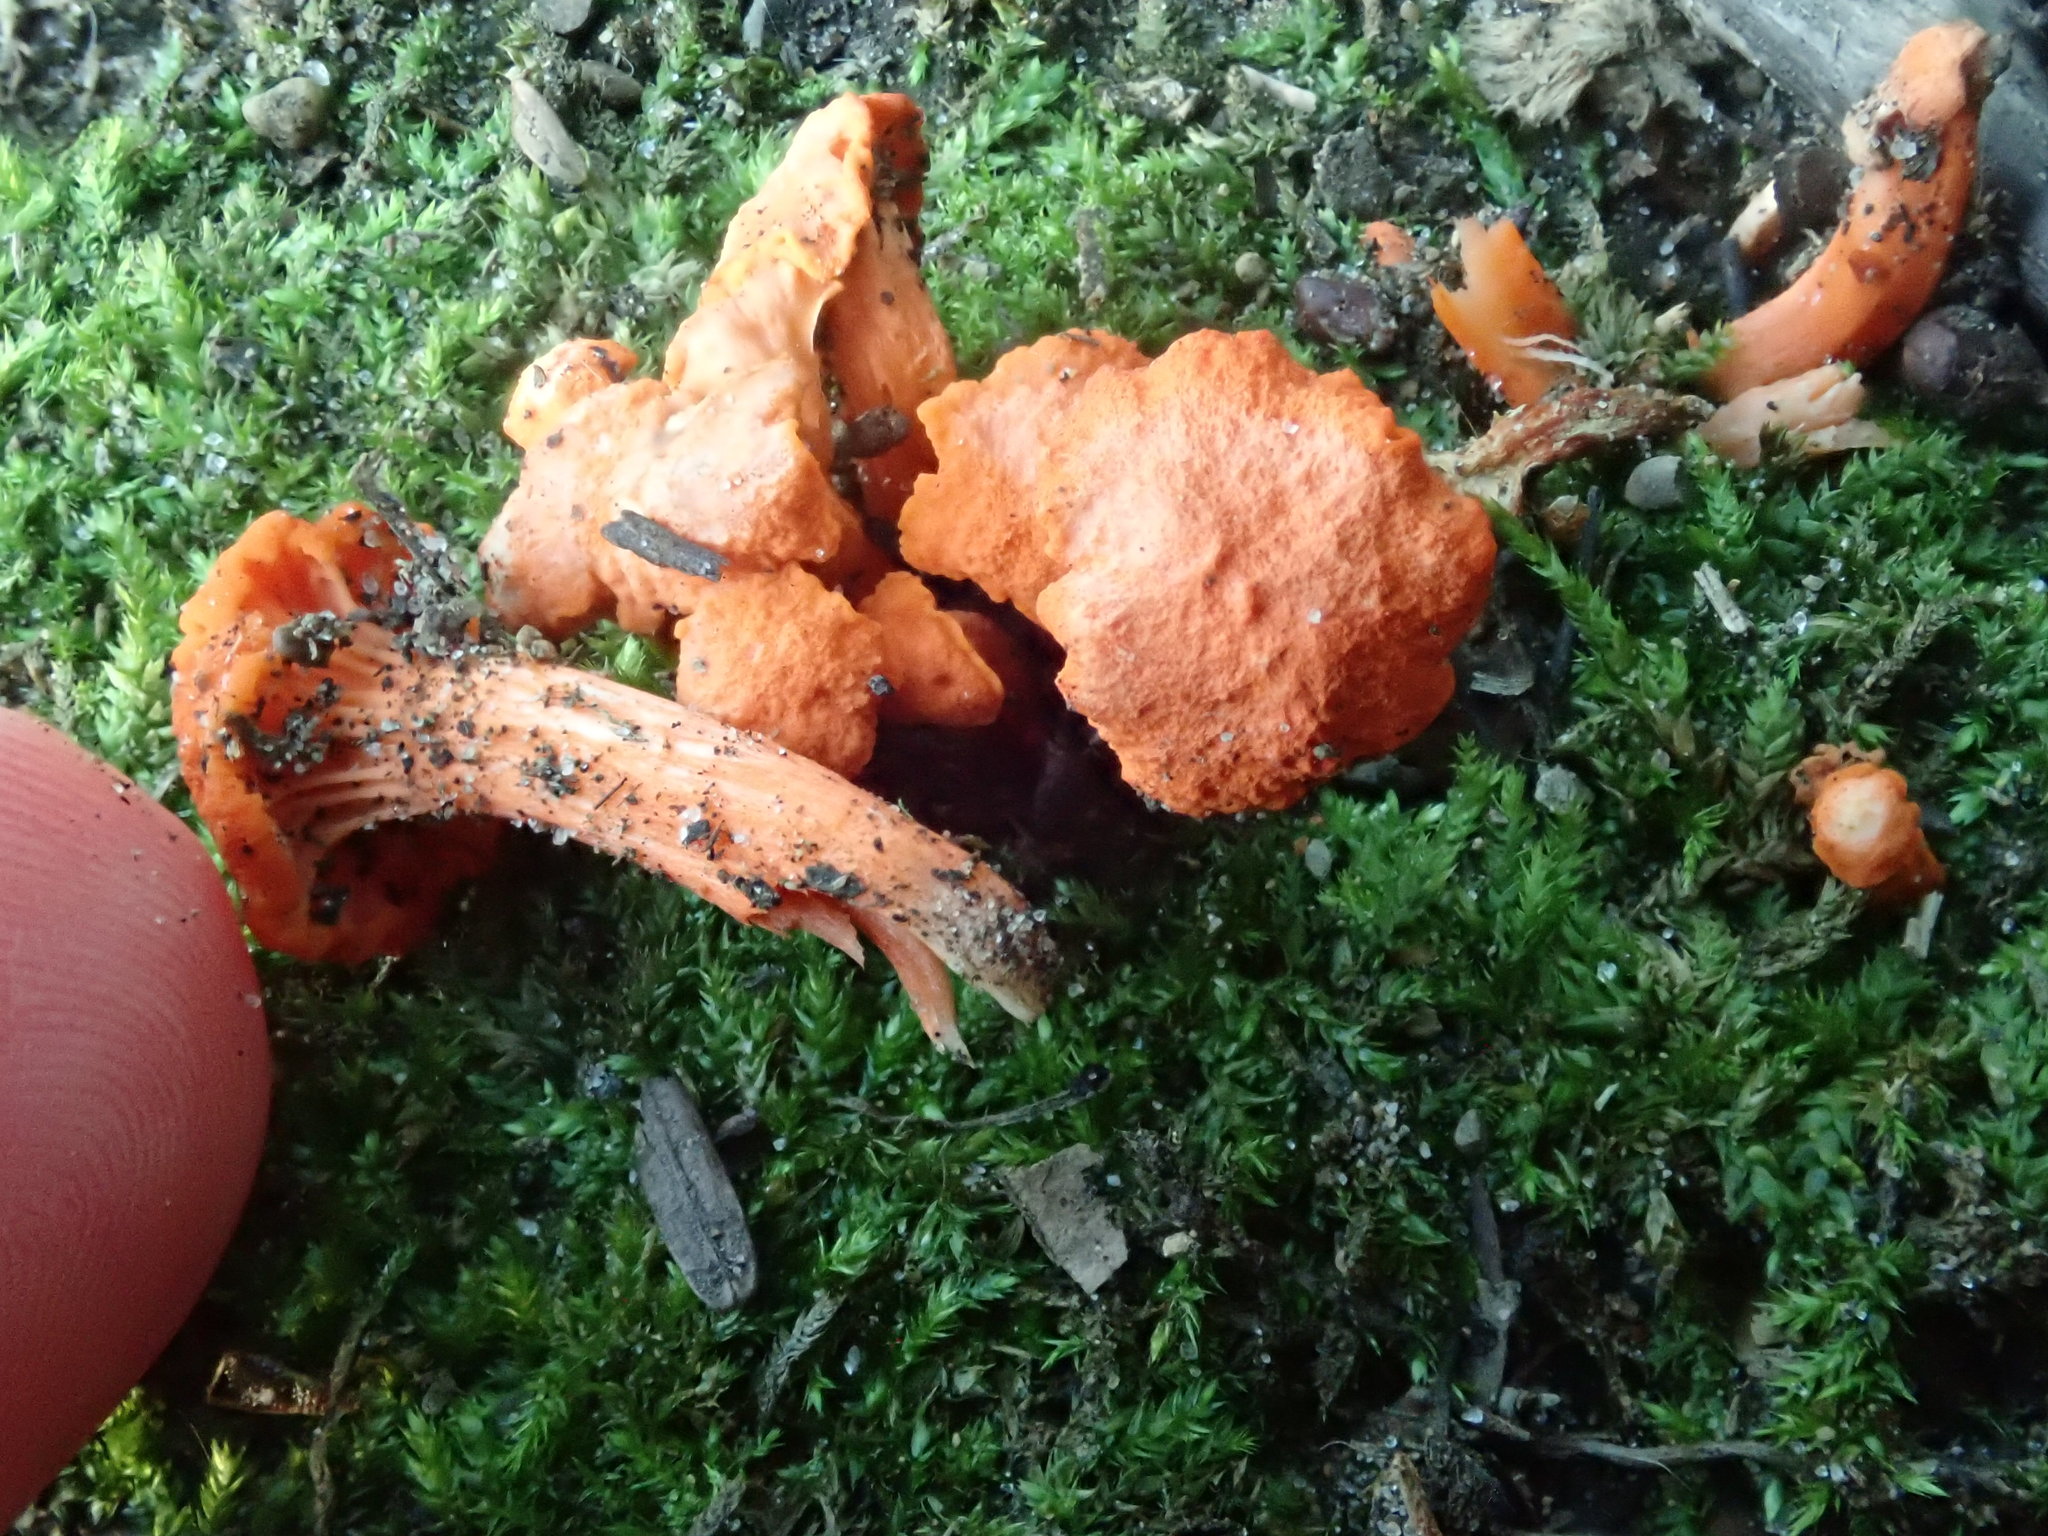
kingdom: Fungi
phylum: Basidiomycota
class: Agaricomycetes
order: Cantharellales
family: Hydnaceae
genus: Cantharellus
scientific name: Cantharellus cinnabarinus
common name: Cinnabar chanterelle
